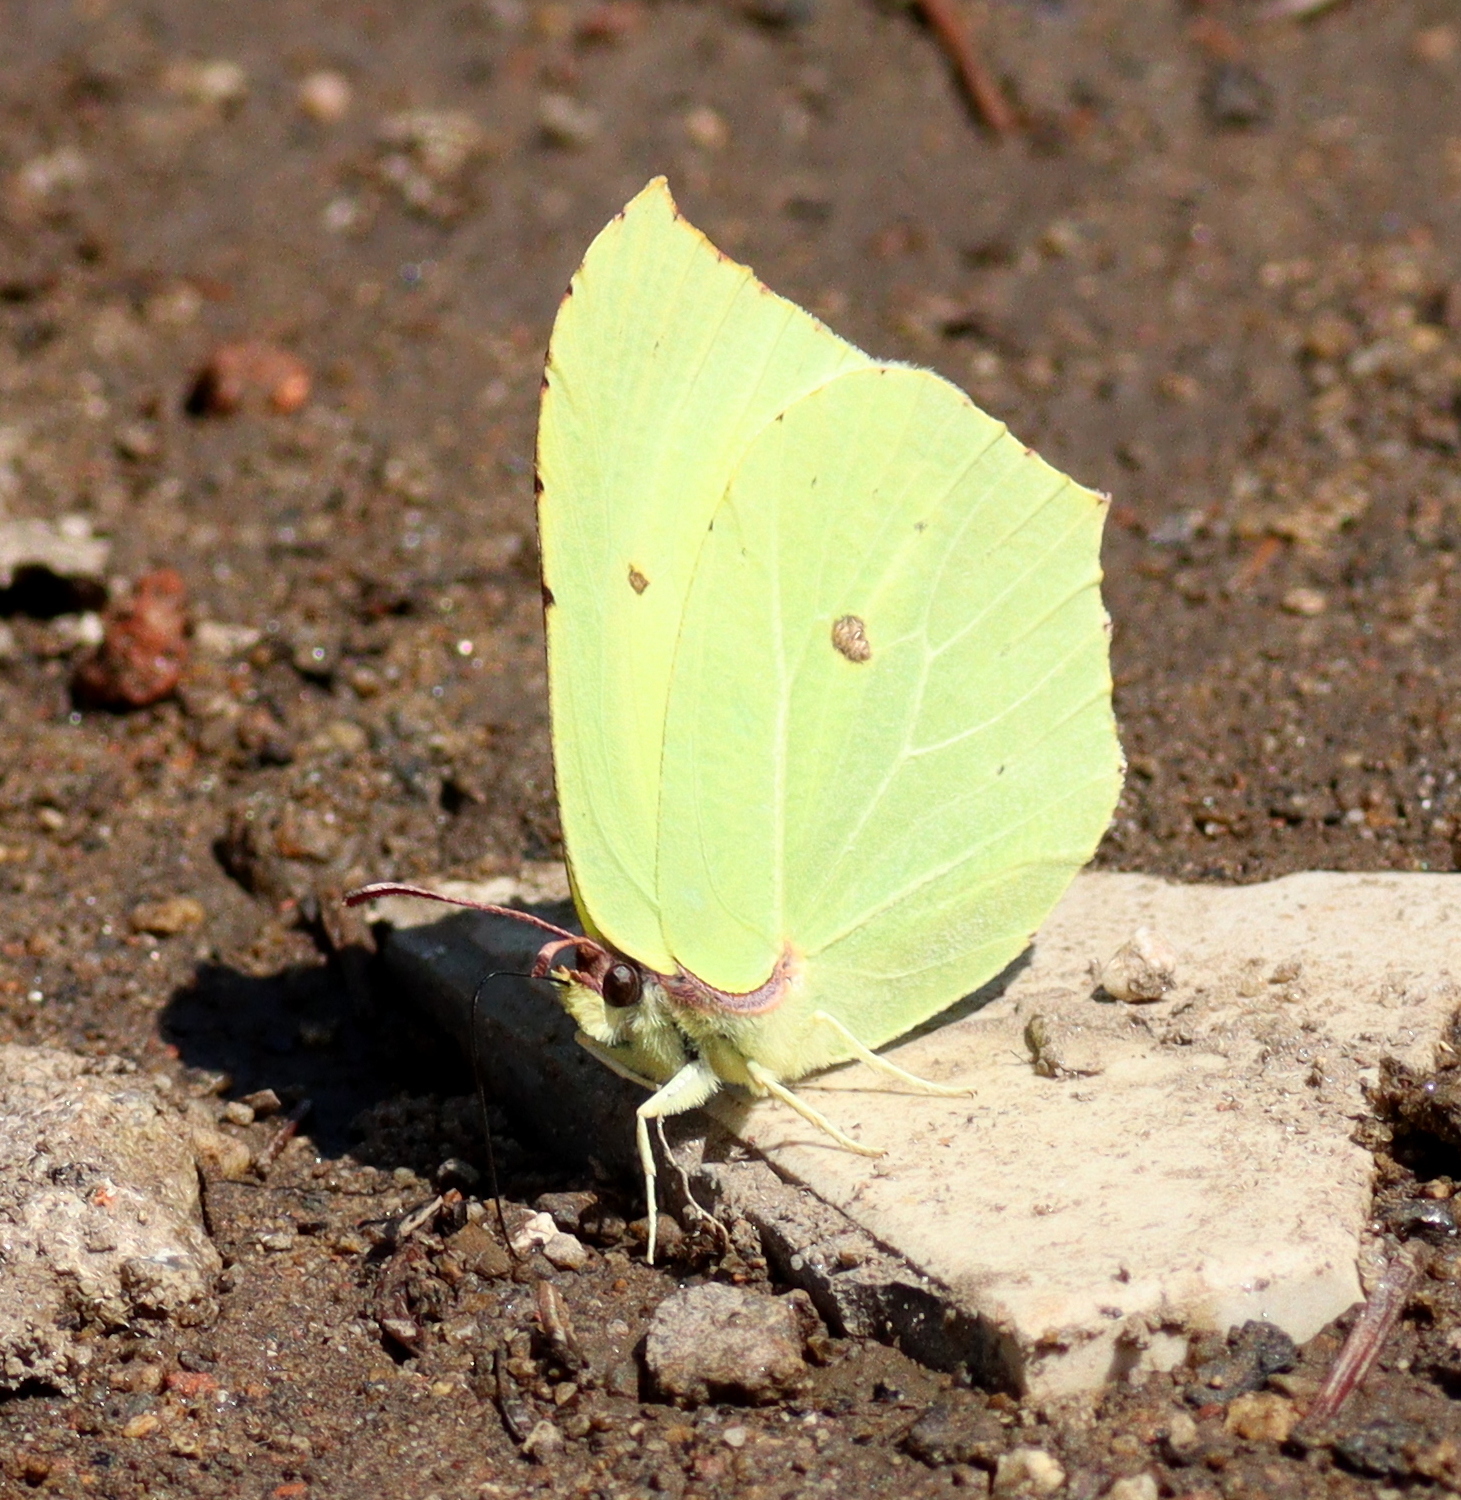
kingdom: Animalia
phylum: Arthropoda
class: Insecta
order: Lepidoptera
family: Pieridae
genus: Gonepteryx
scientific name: Gonepteryx rhamni
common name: Brimstone
